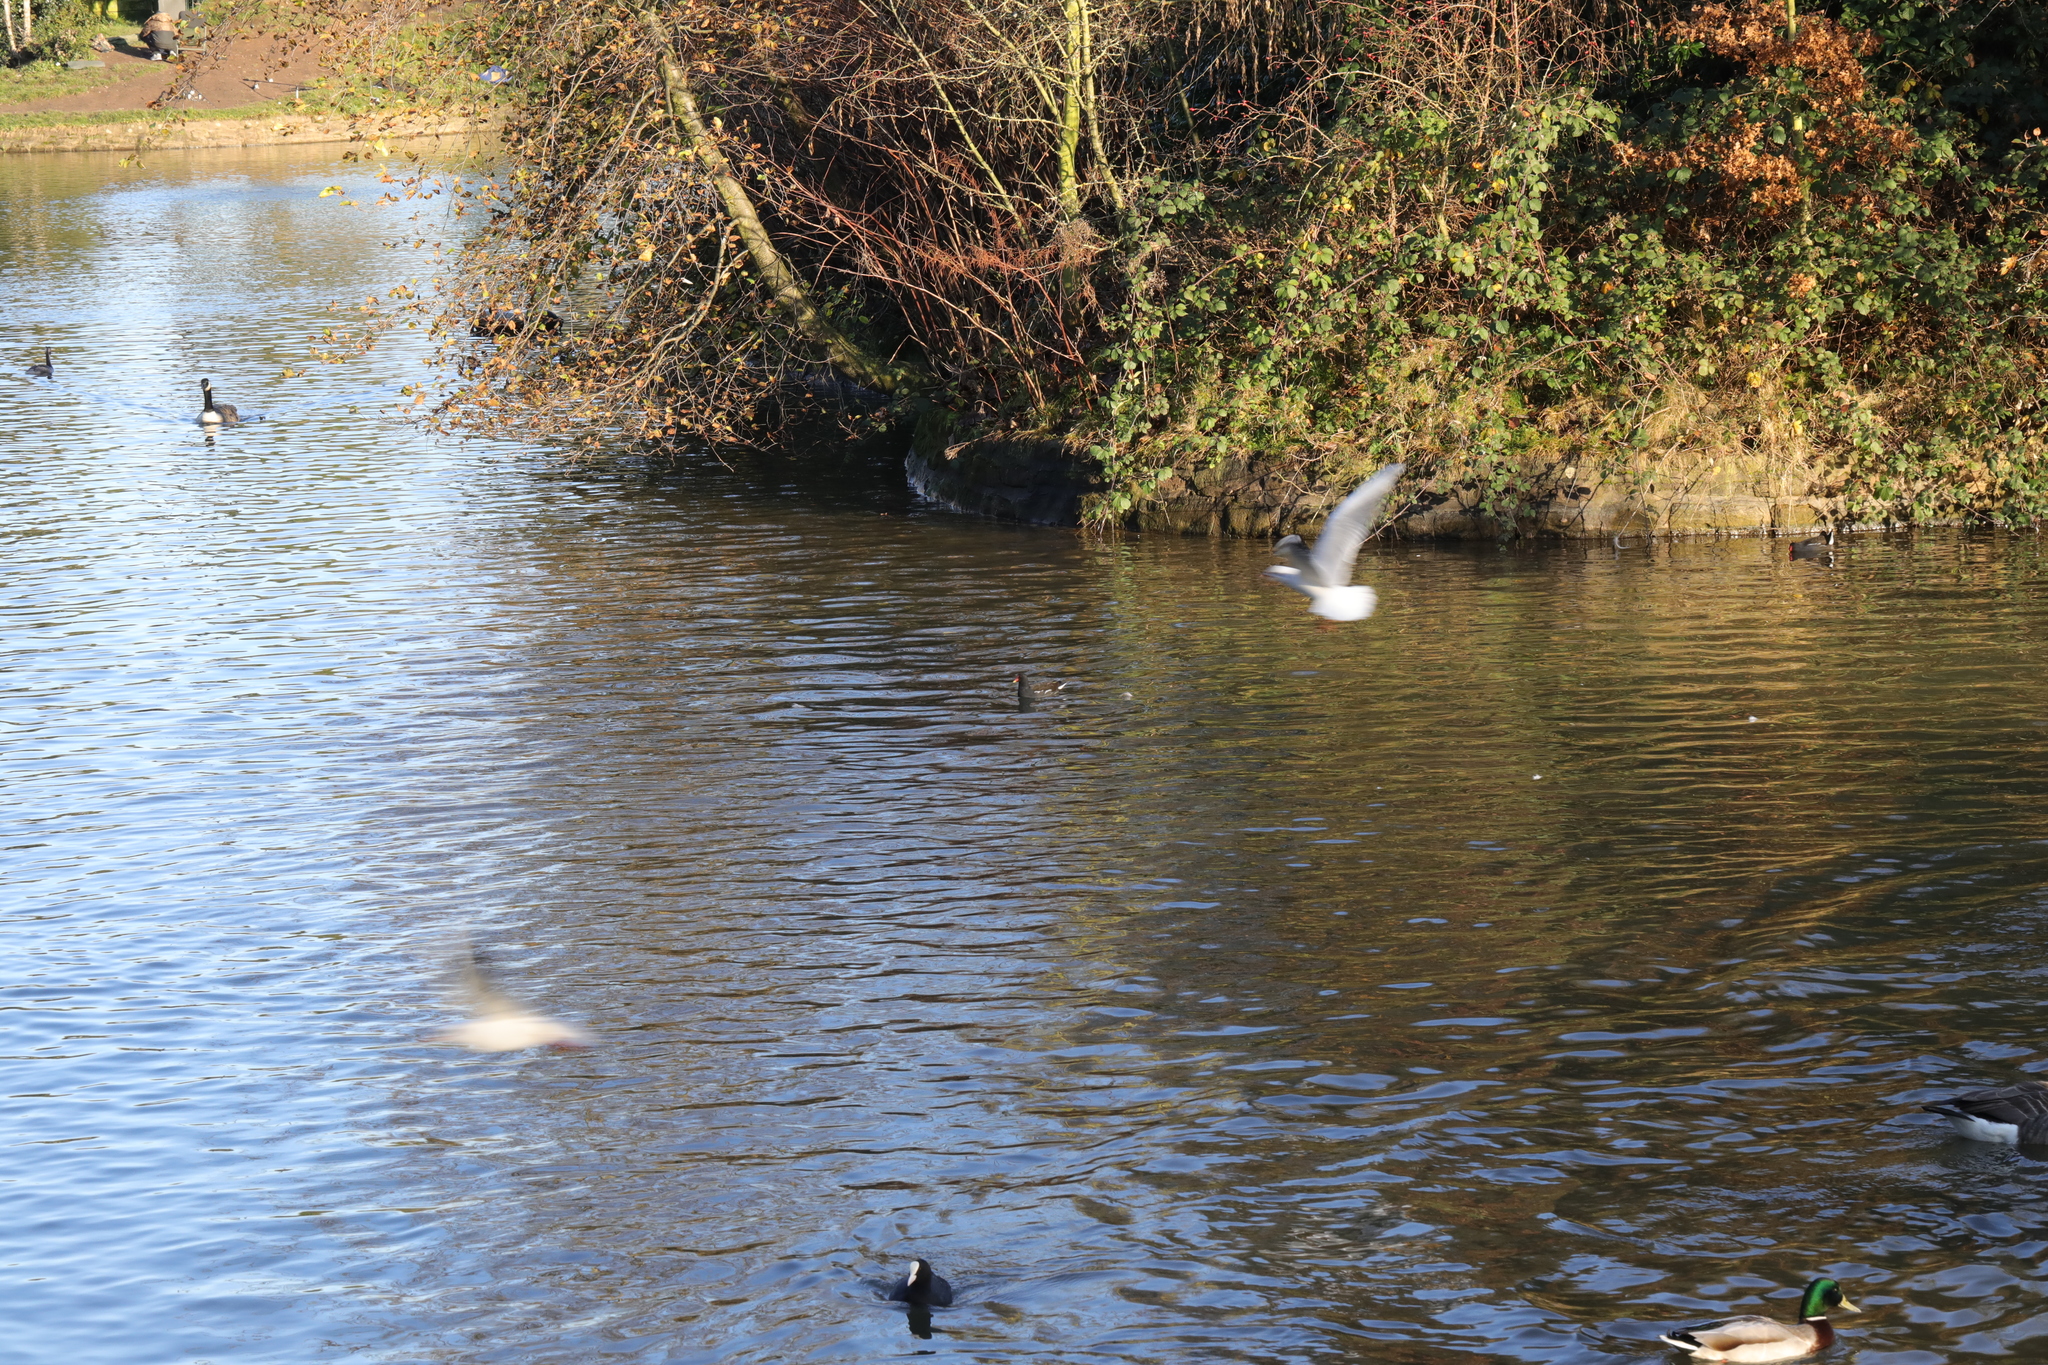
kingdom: Animalia
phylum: Chordata
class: Aves
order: Gruiformes
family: Rallidae
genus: Gallinula
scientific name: Gallinula chloropus
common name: Common moorhen
